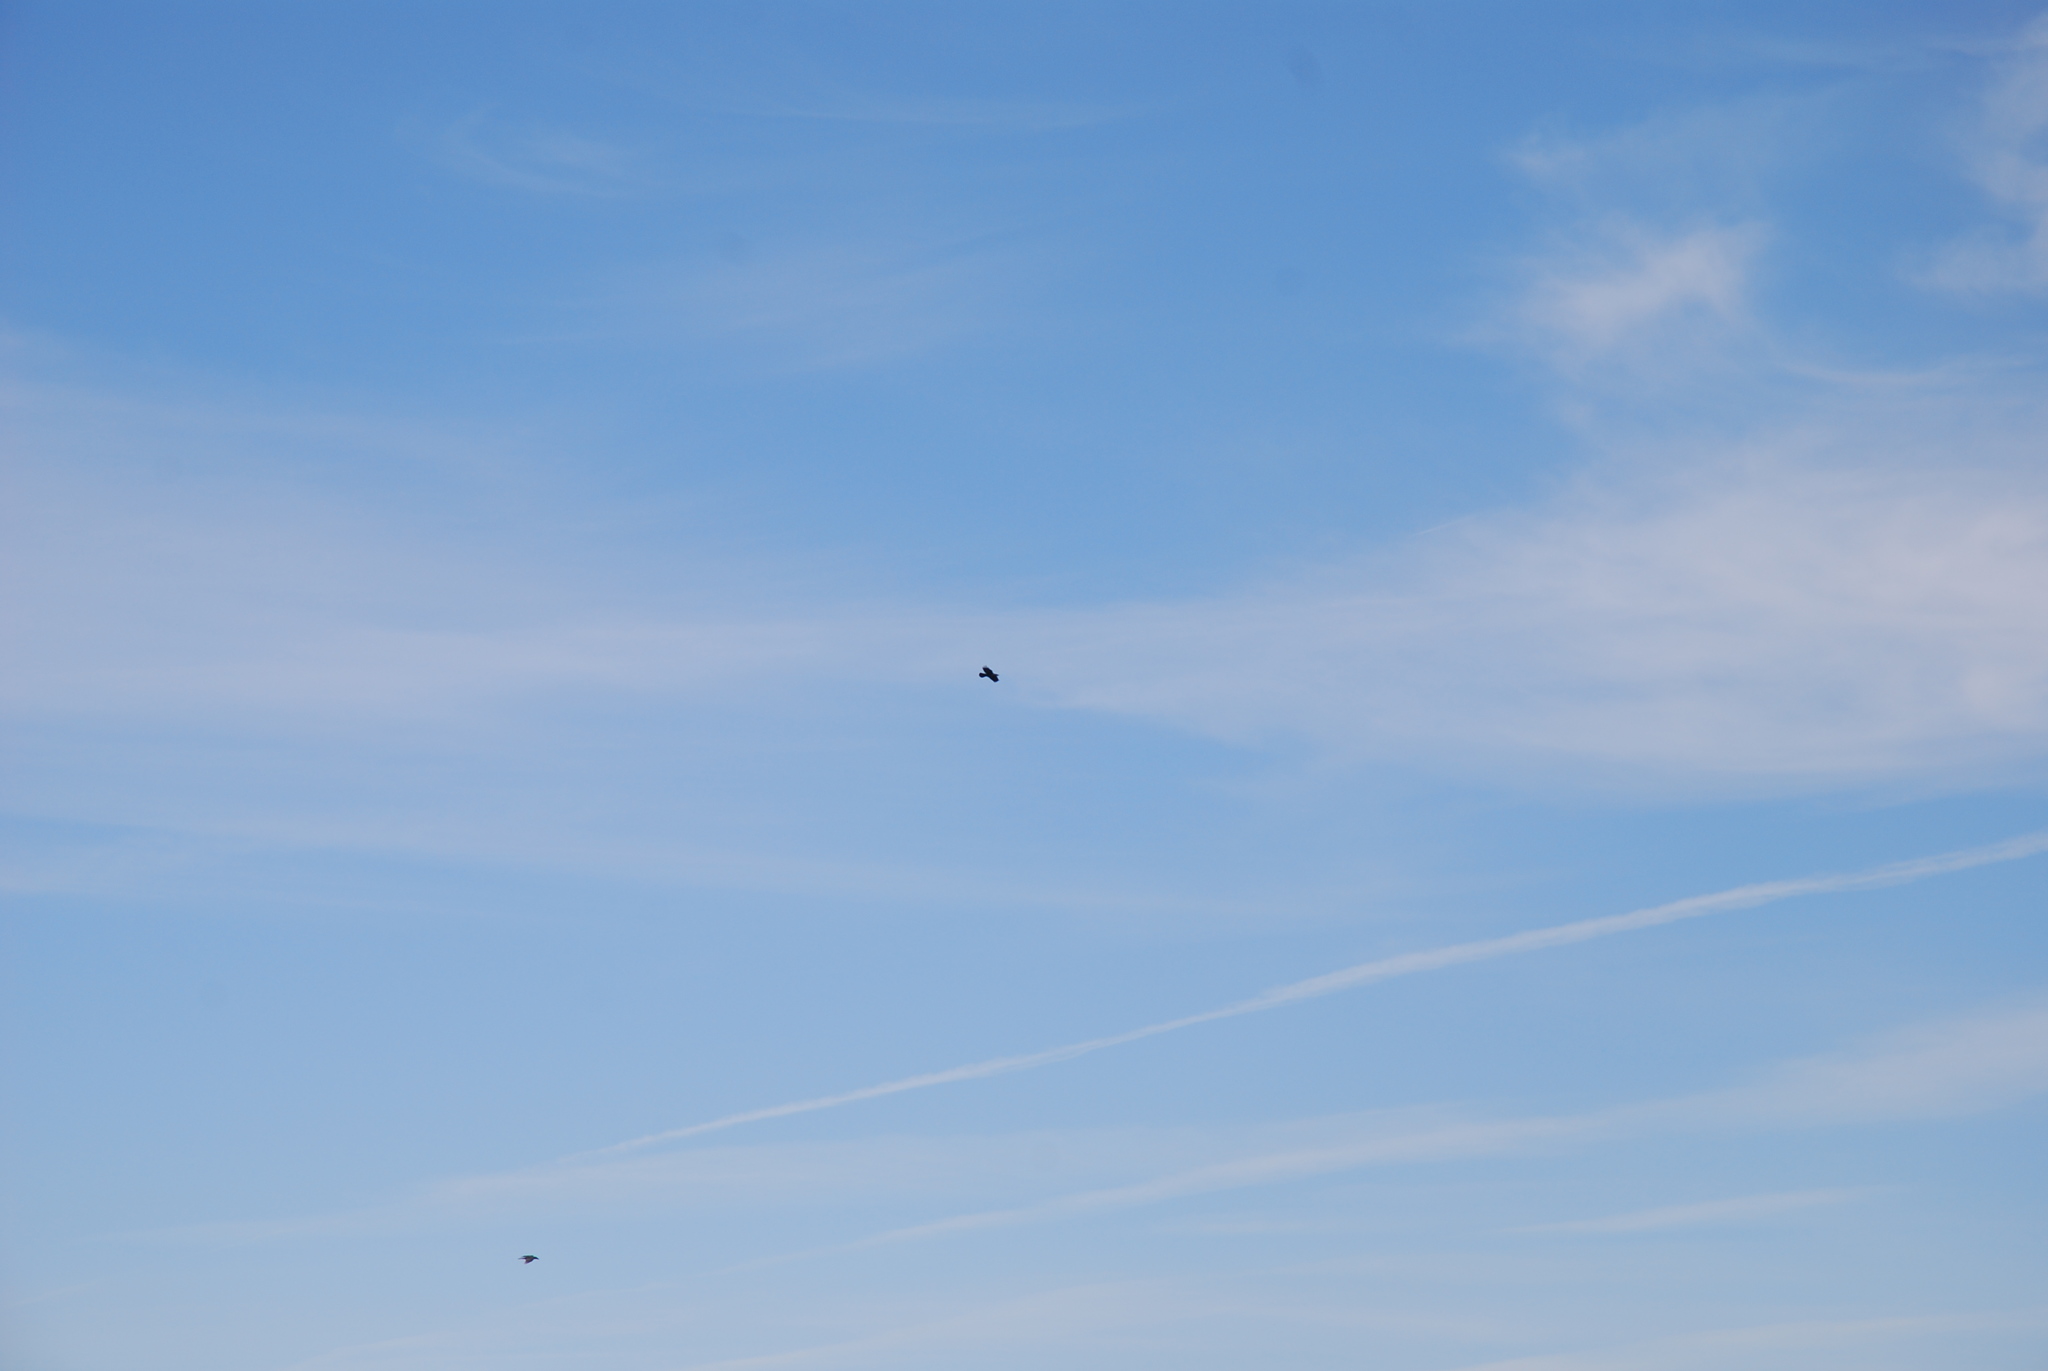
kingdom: Animalia
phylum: Chordata
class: Aves
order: Passeriformes
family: Corvidae
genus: Corvus
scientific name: Corvus corax
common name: Common raven
